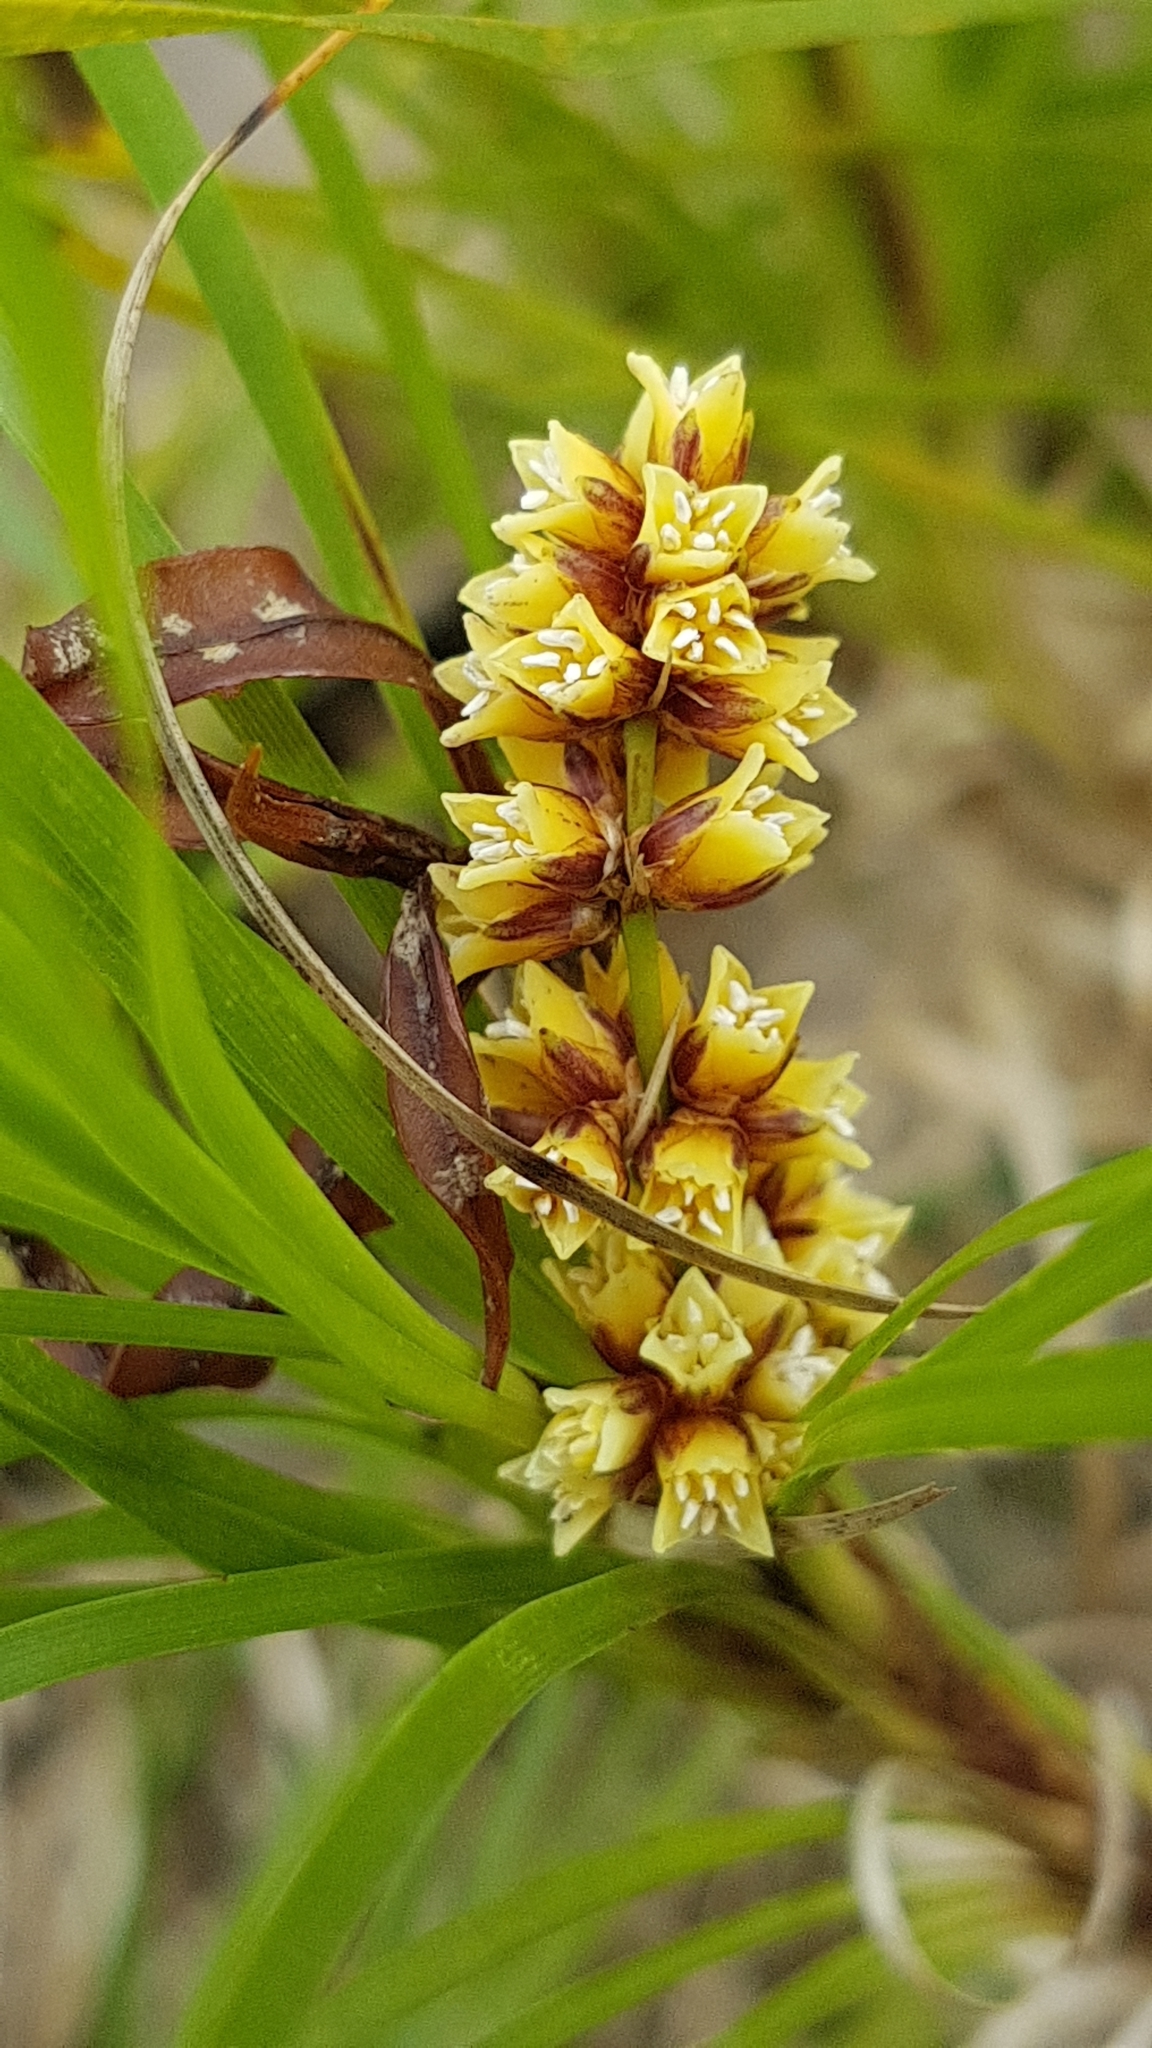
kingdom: Plantae
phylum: Tracheophyta
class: Liliopsida
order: Asparagales
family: Asparagaceae
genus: Lomandra
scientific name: Lomandra confertifolia
